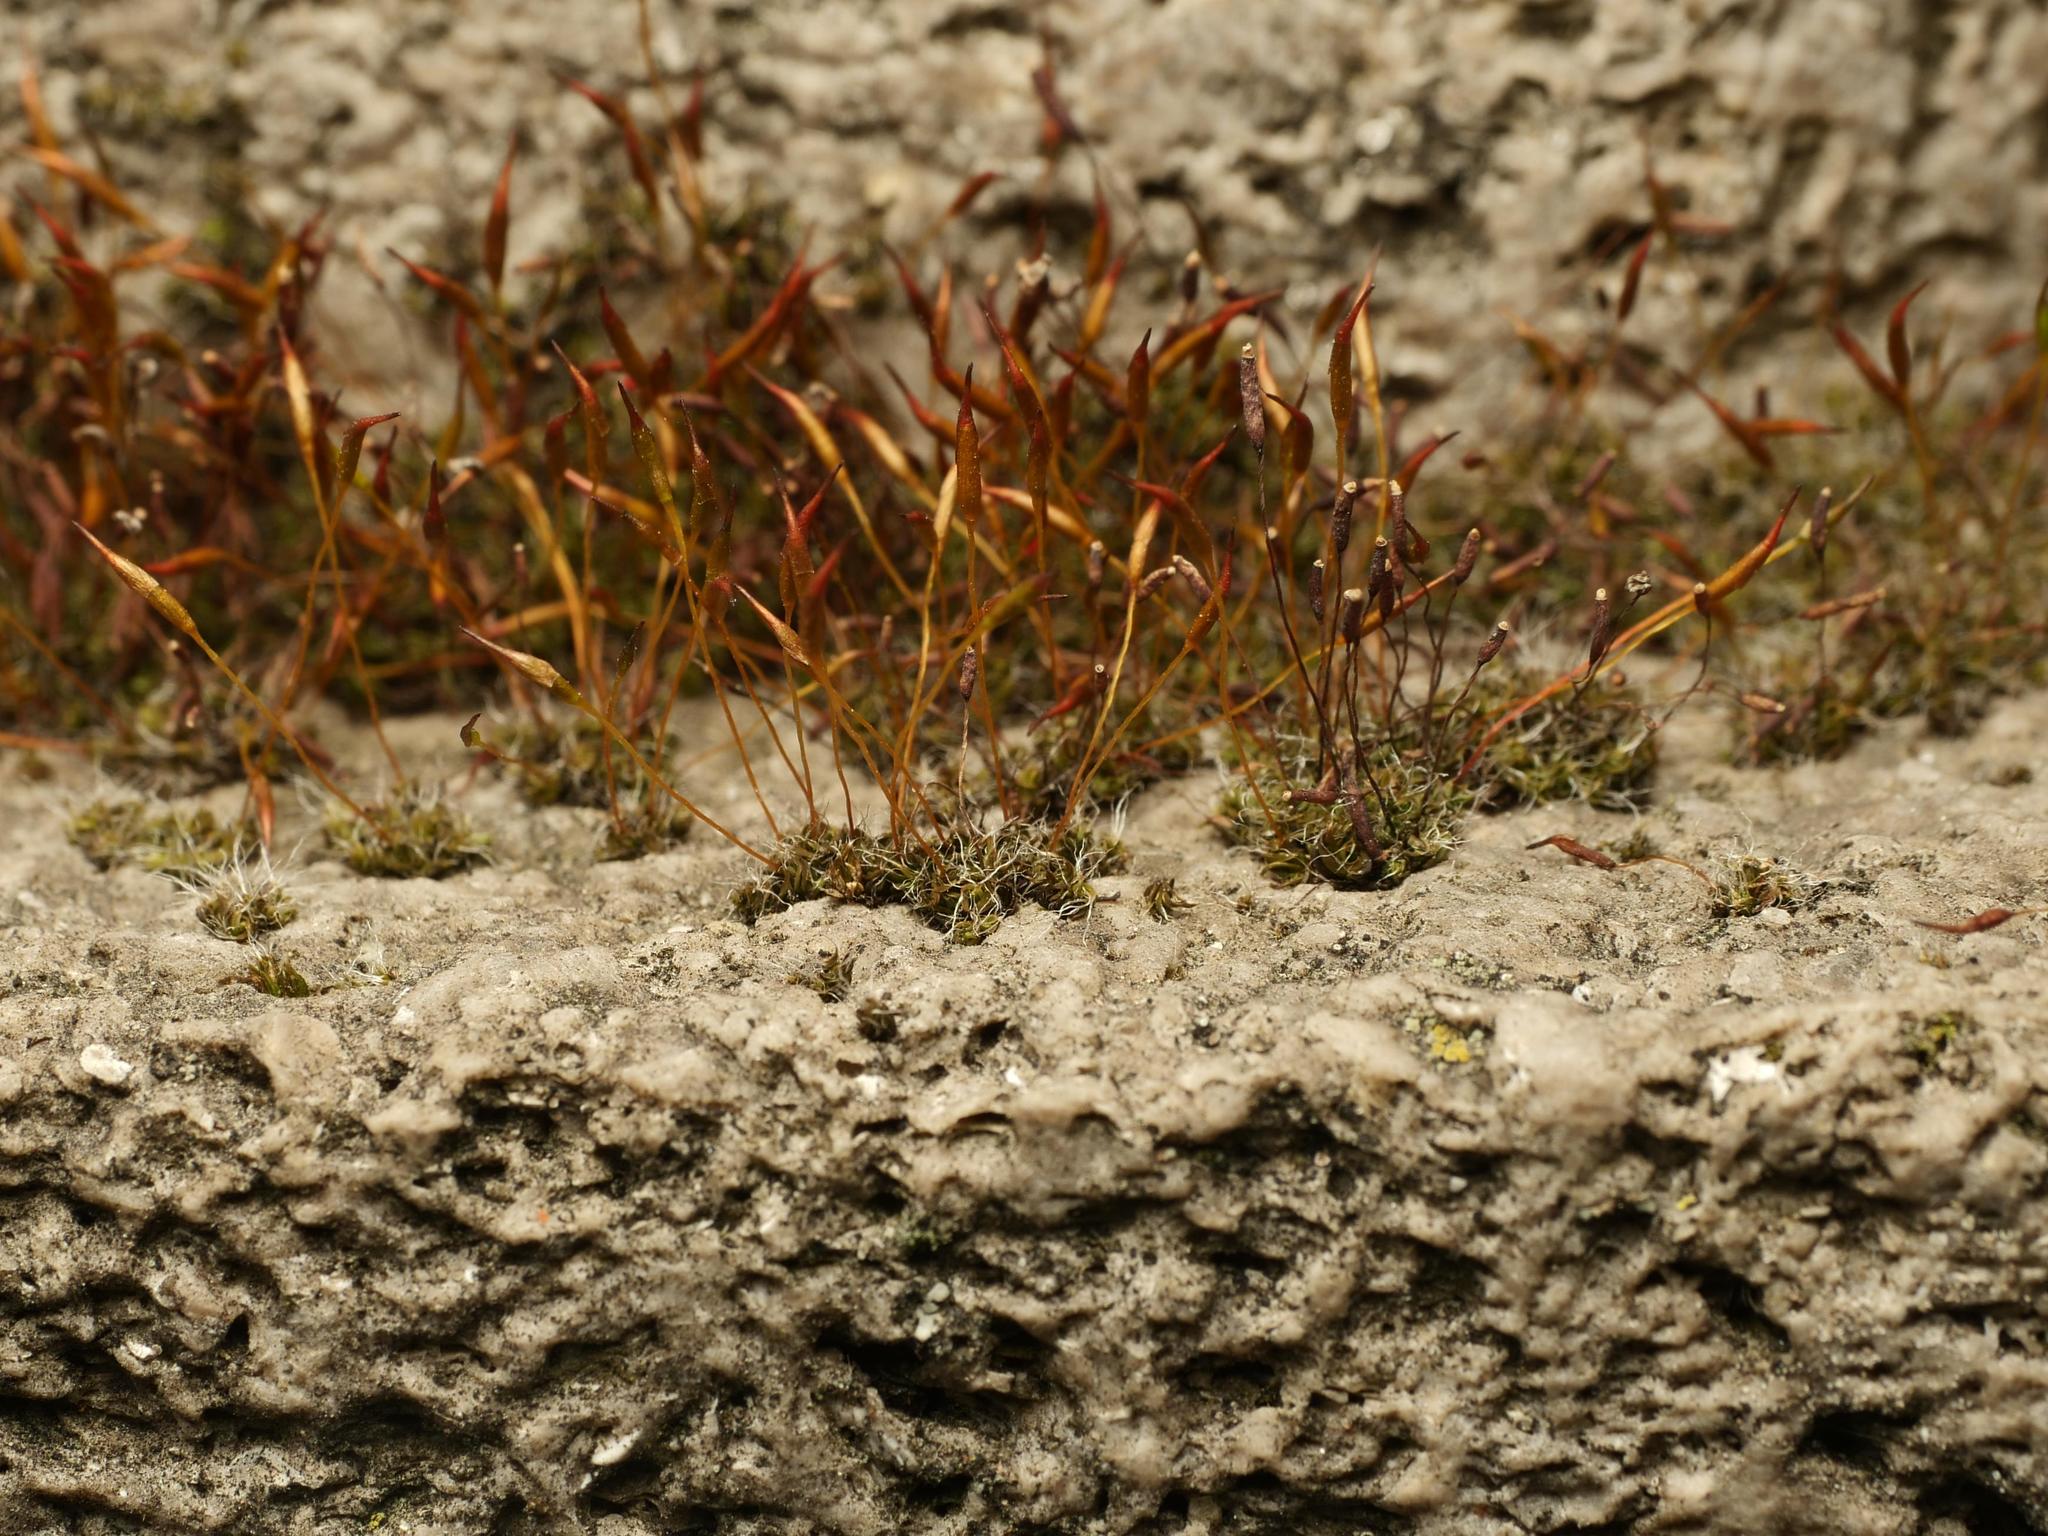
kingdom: Plantae
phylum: Bryophyta
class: Bryopsida
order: Pottiales
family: Pottiaceae
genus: Tortula
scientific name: Tortula muralis
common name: Wall screw-moss
